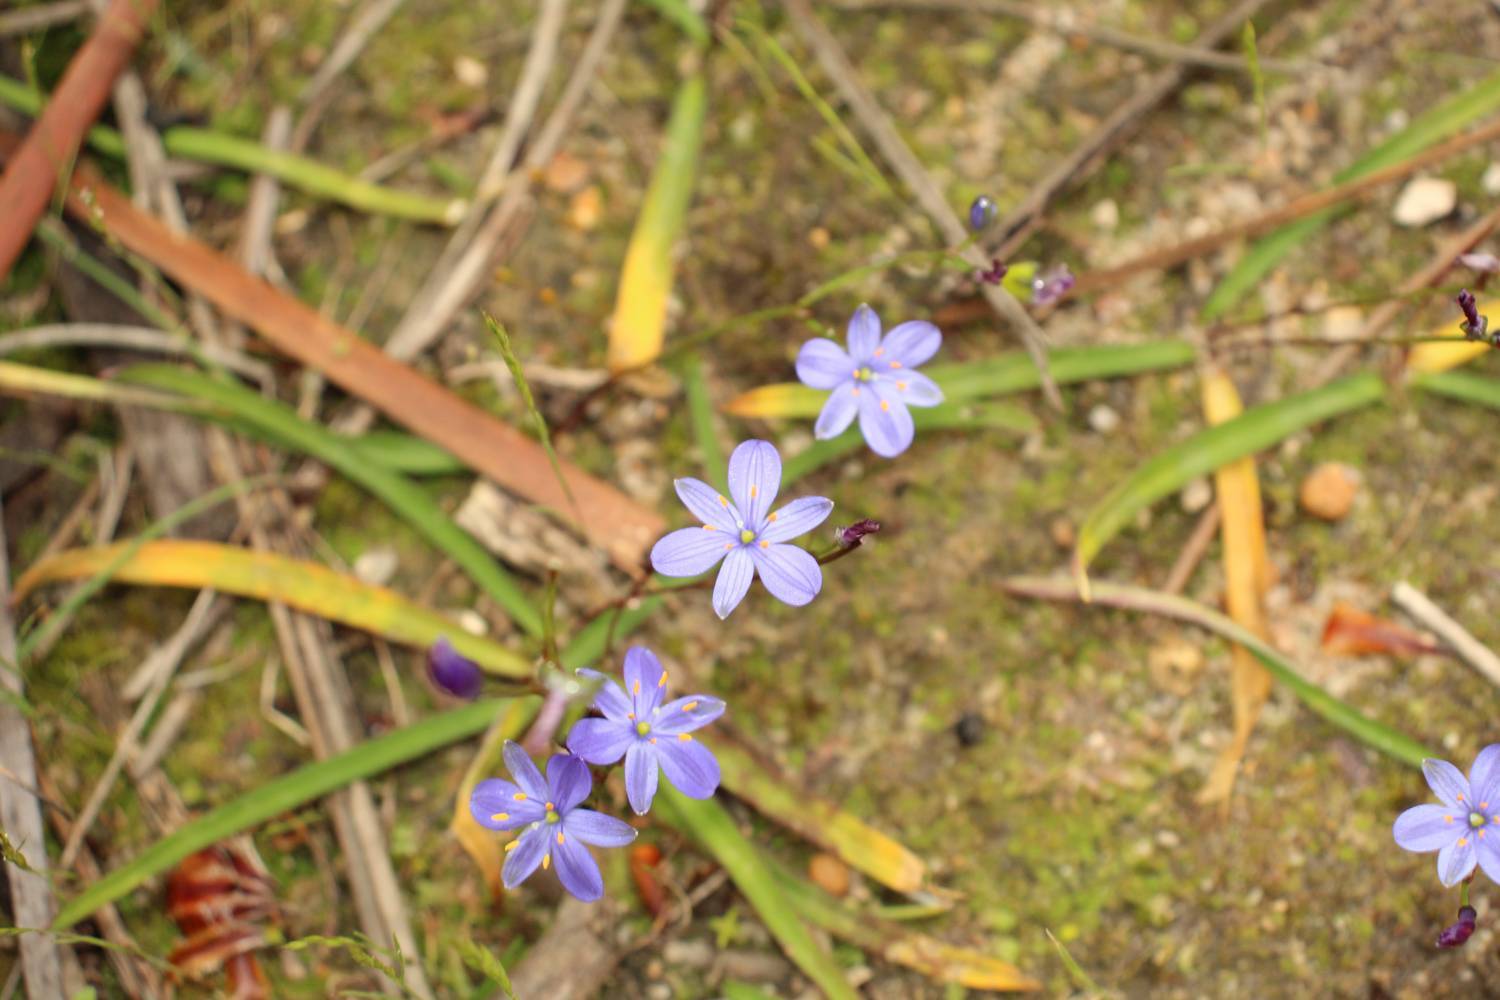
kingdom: Plantae
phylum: Tracheophyta
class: Liliopsida
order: Asparagales
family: Asphodelaceae
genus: Chamaescilla
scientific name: Chamaescilla corymbosa
